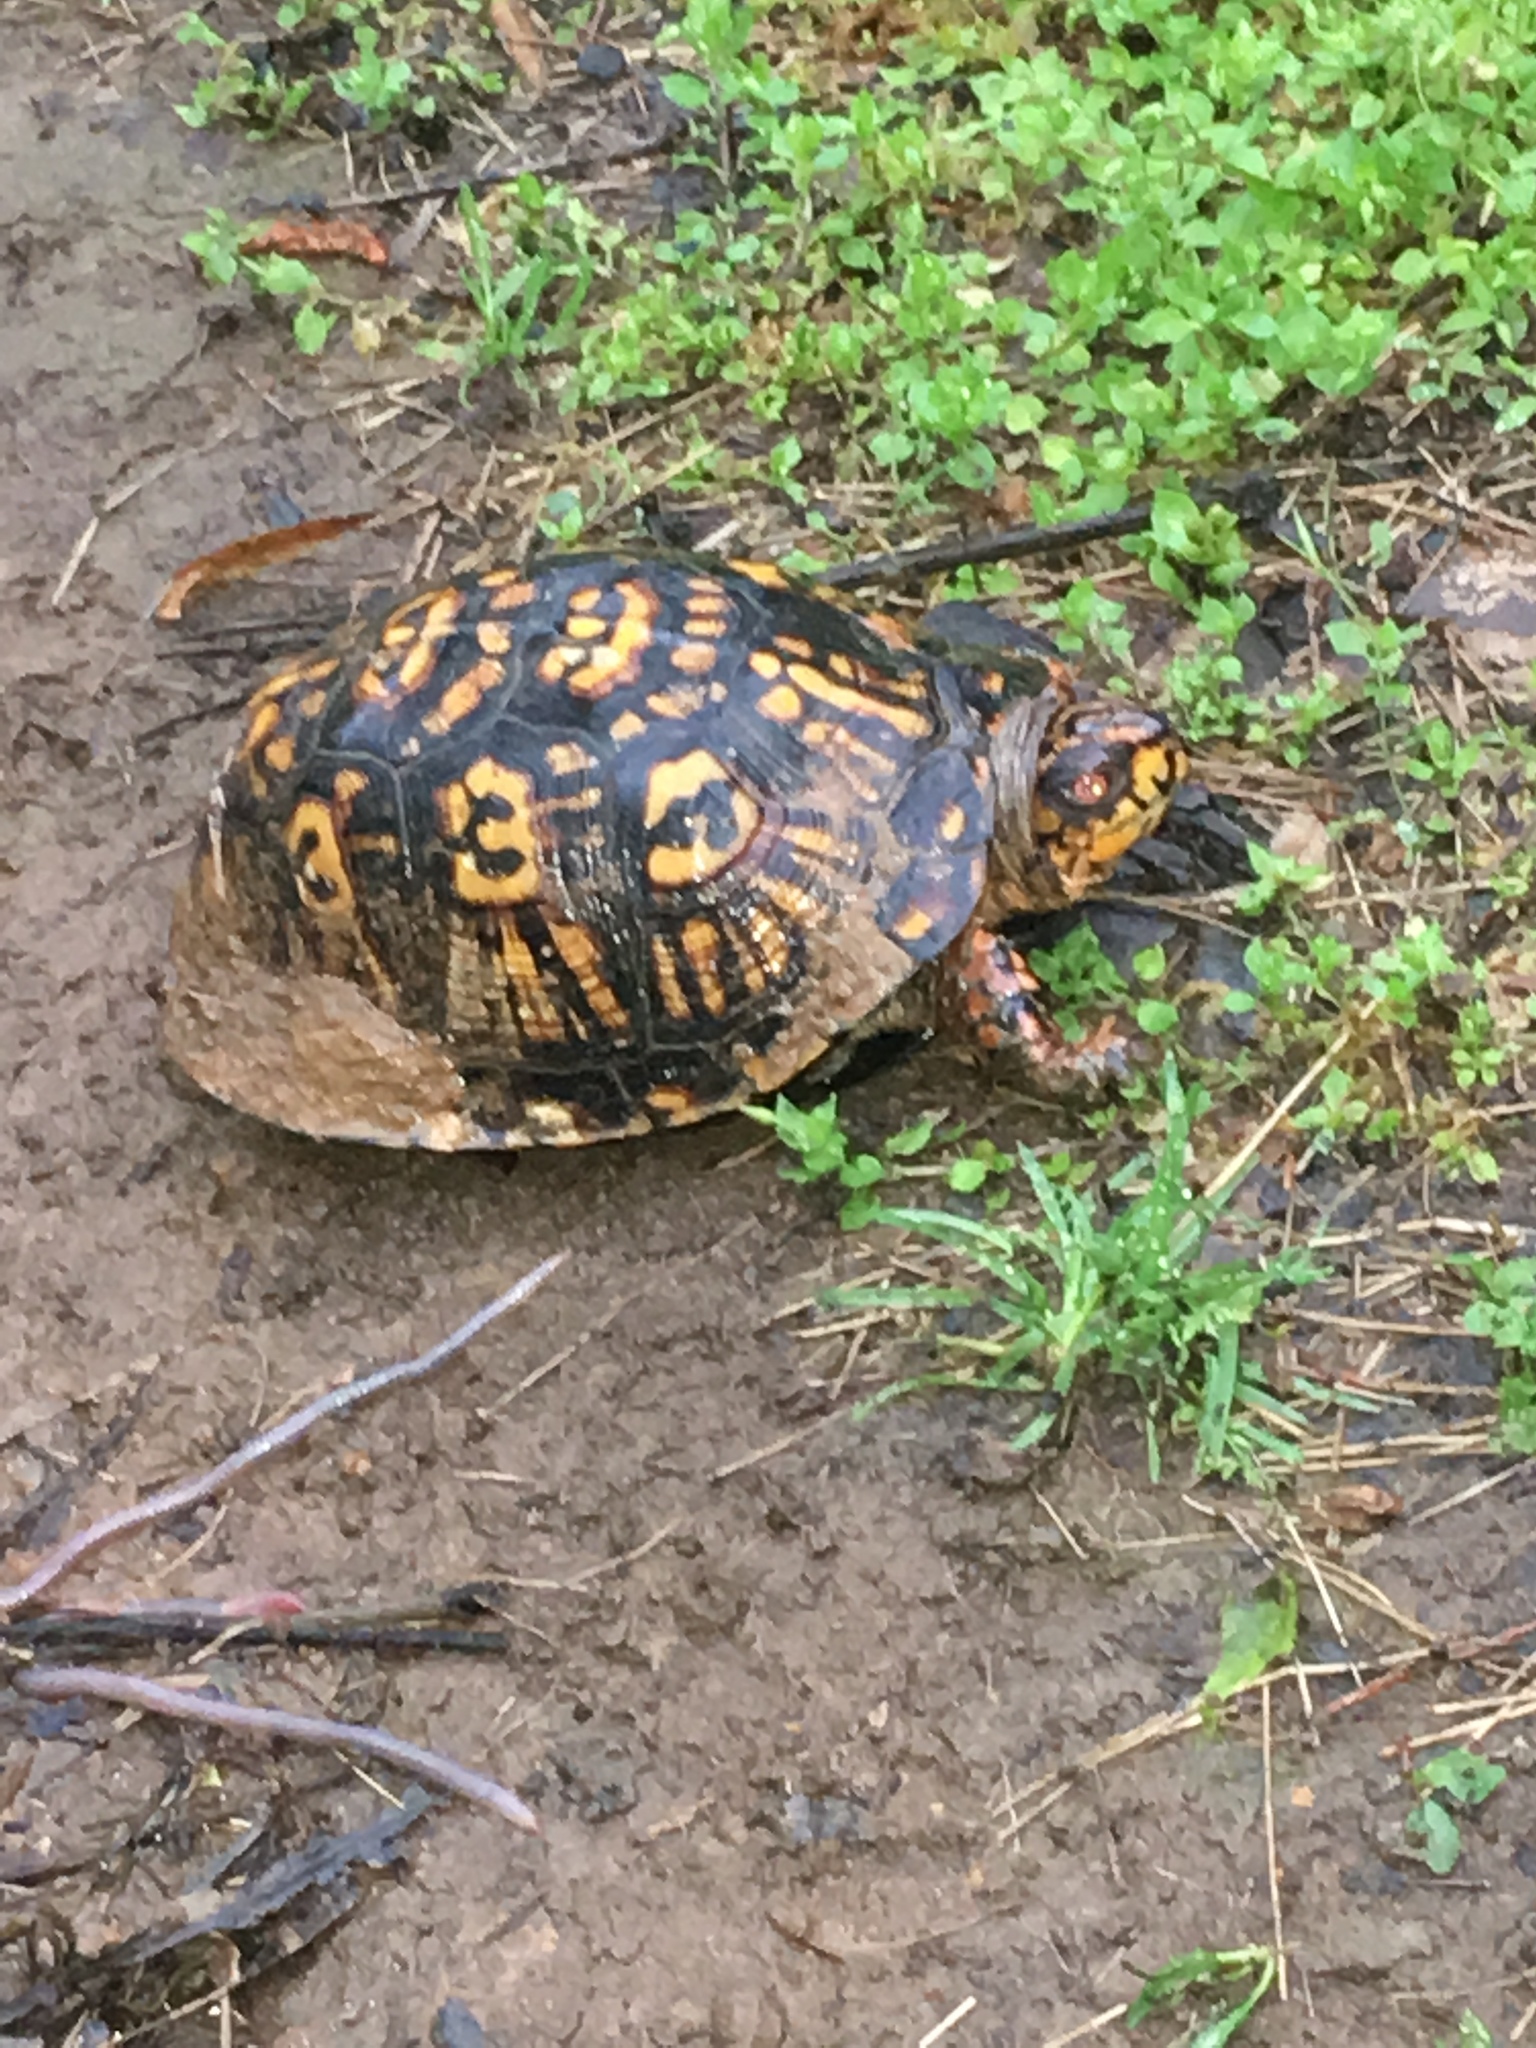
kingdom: Animalia
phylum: Chordata
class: Testudines
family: Emydidae
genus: Terrapene
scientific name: Terrapene carolina
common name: Common box turtle
